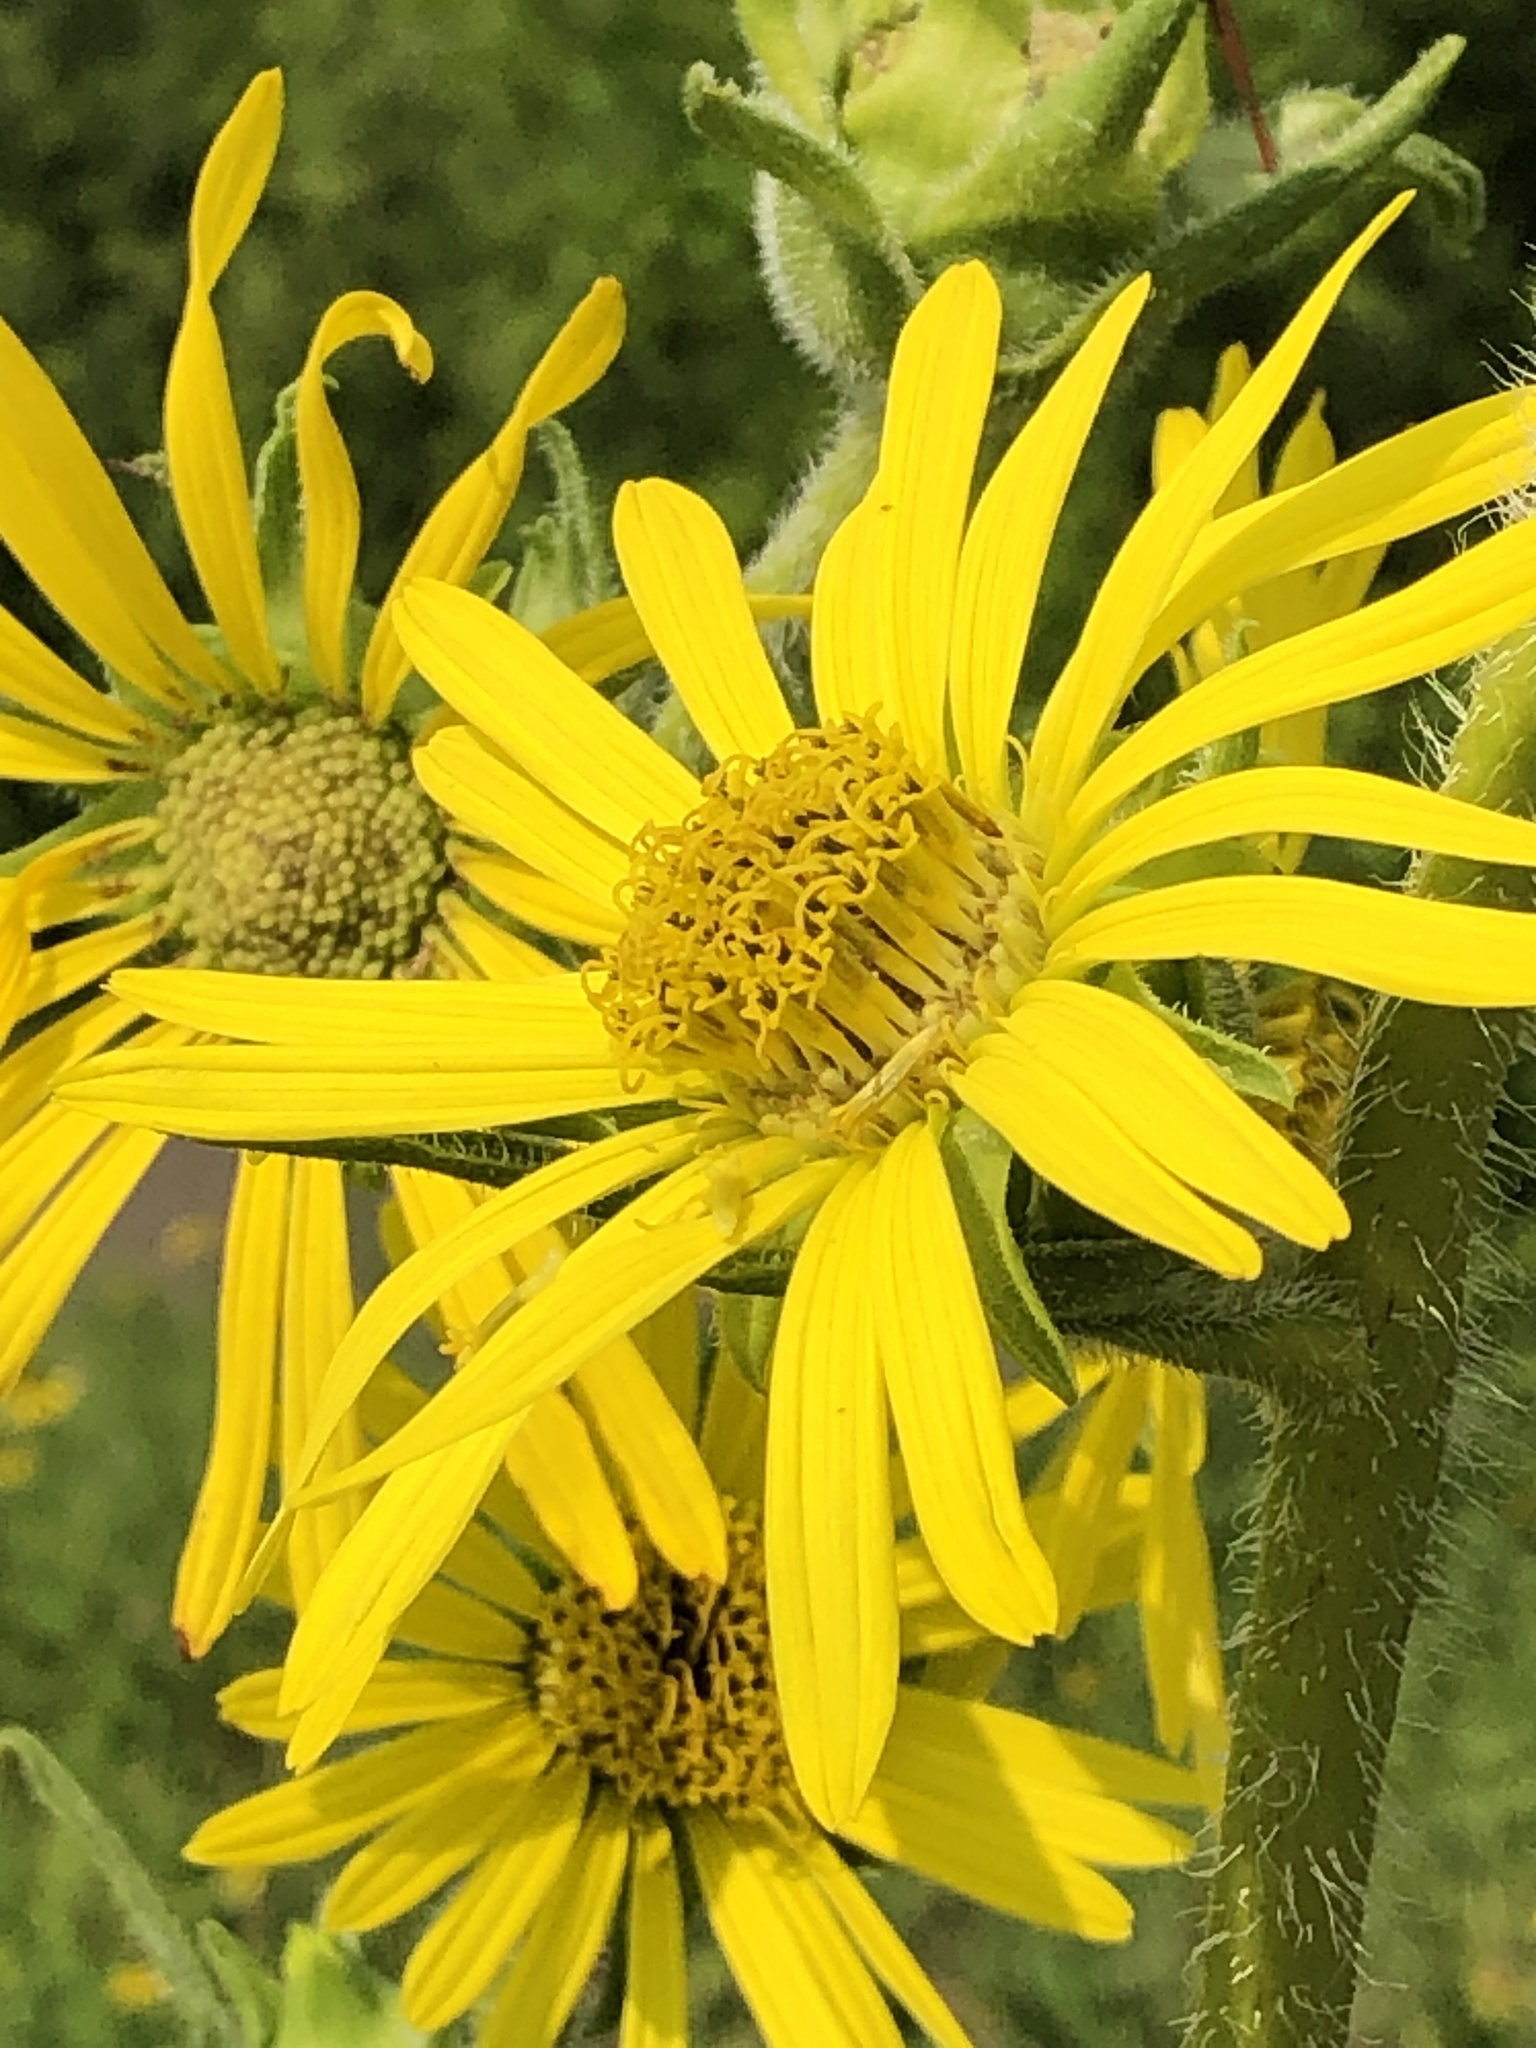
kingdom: Plantae
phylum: Tracheophyta
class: Magnoliopsida
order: Asterales
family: Asteraceae
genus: Silphium
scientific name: Silphium laciniatum
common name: Polarplant
